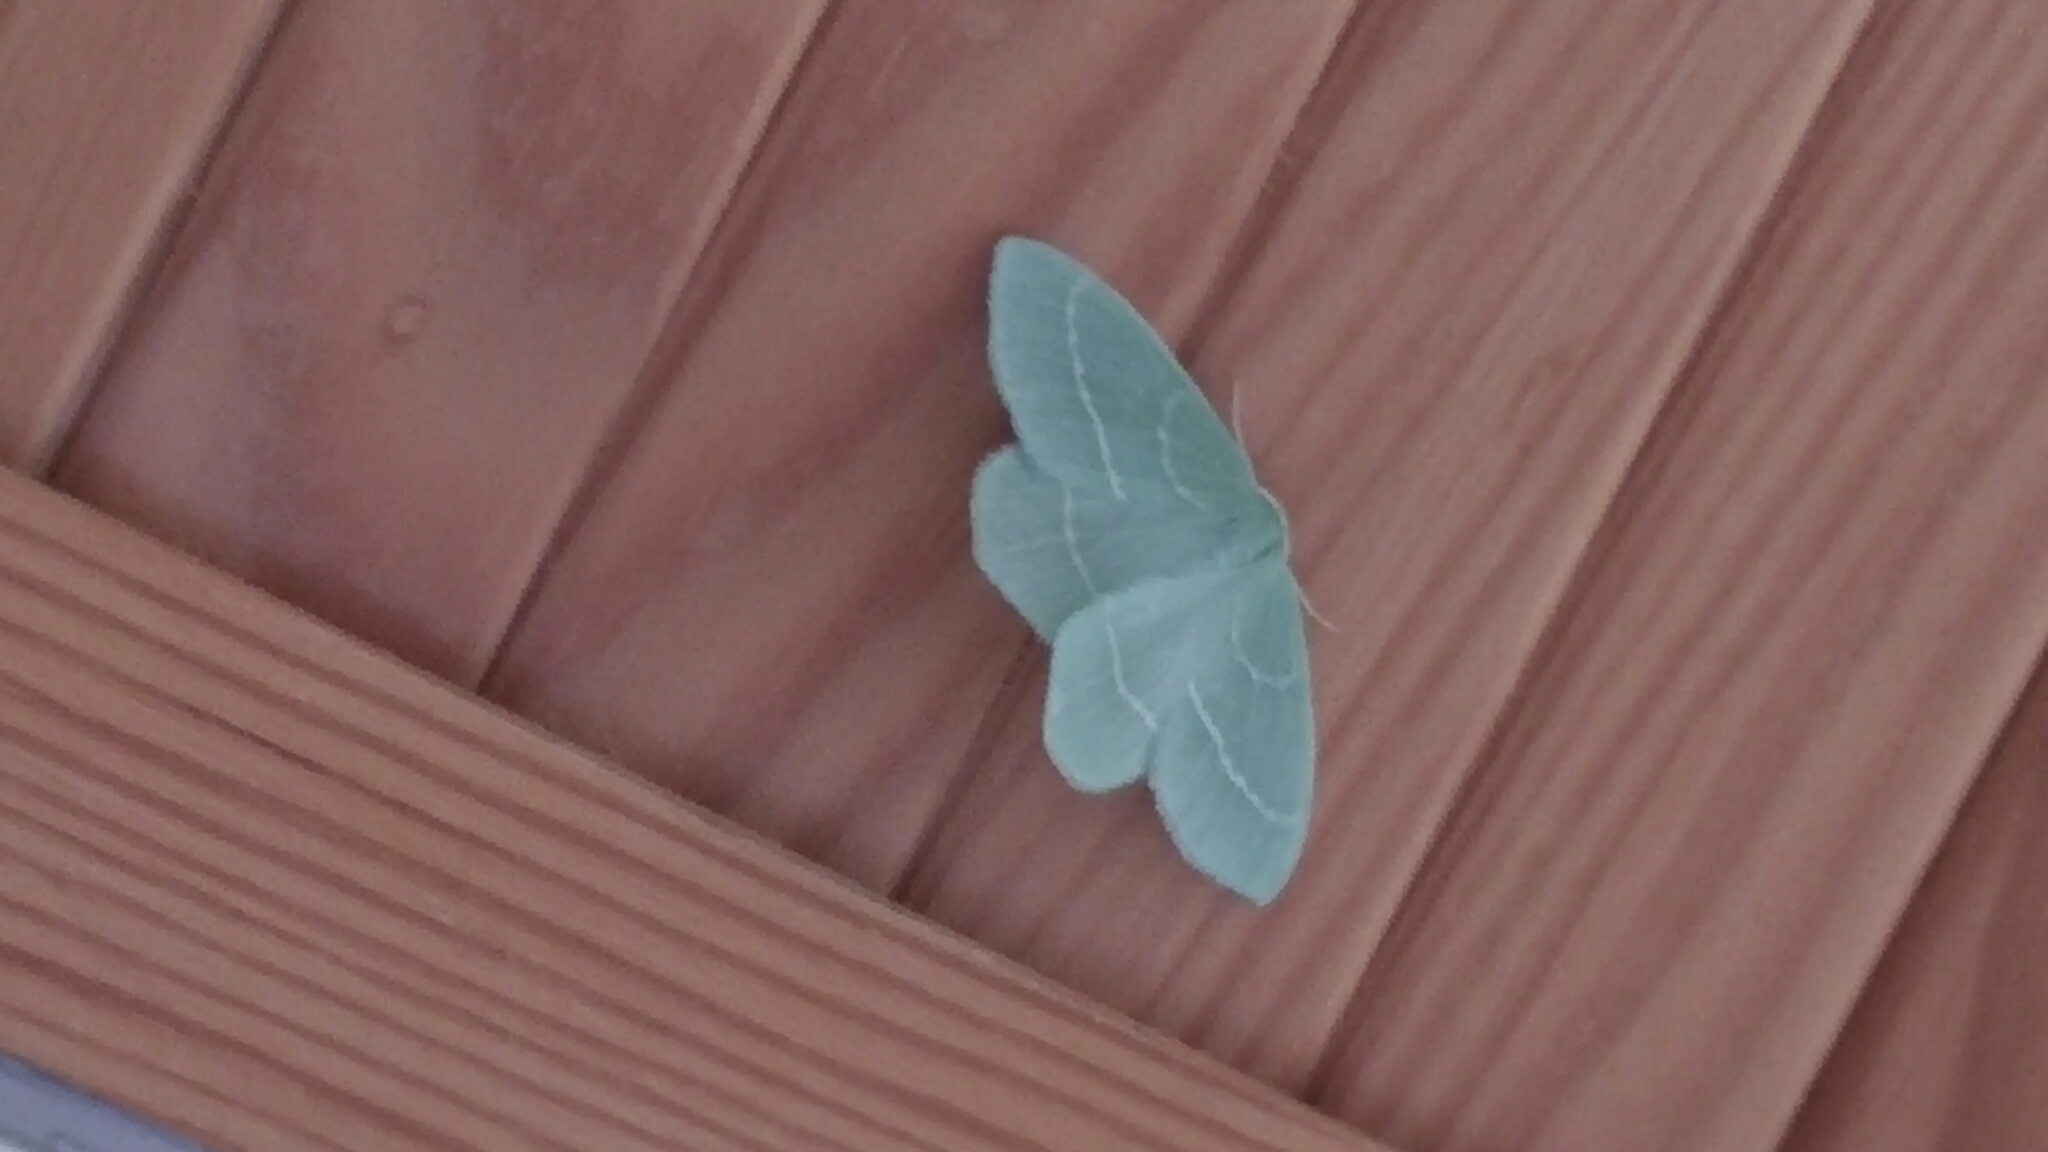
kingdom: Animalia
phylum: Arthropoda
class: Insecta
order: Lepidoptera
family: Geometridae
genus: Hemistola
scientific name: Hemistola chrysoprasaria
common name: Small emerald
